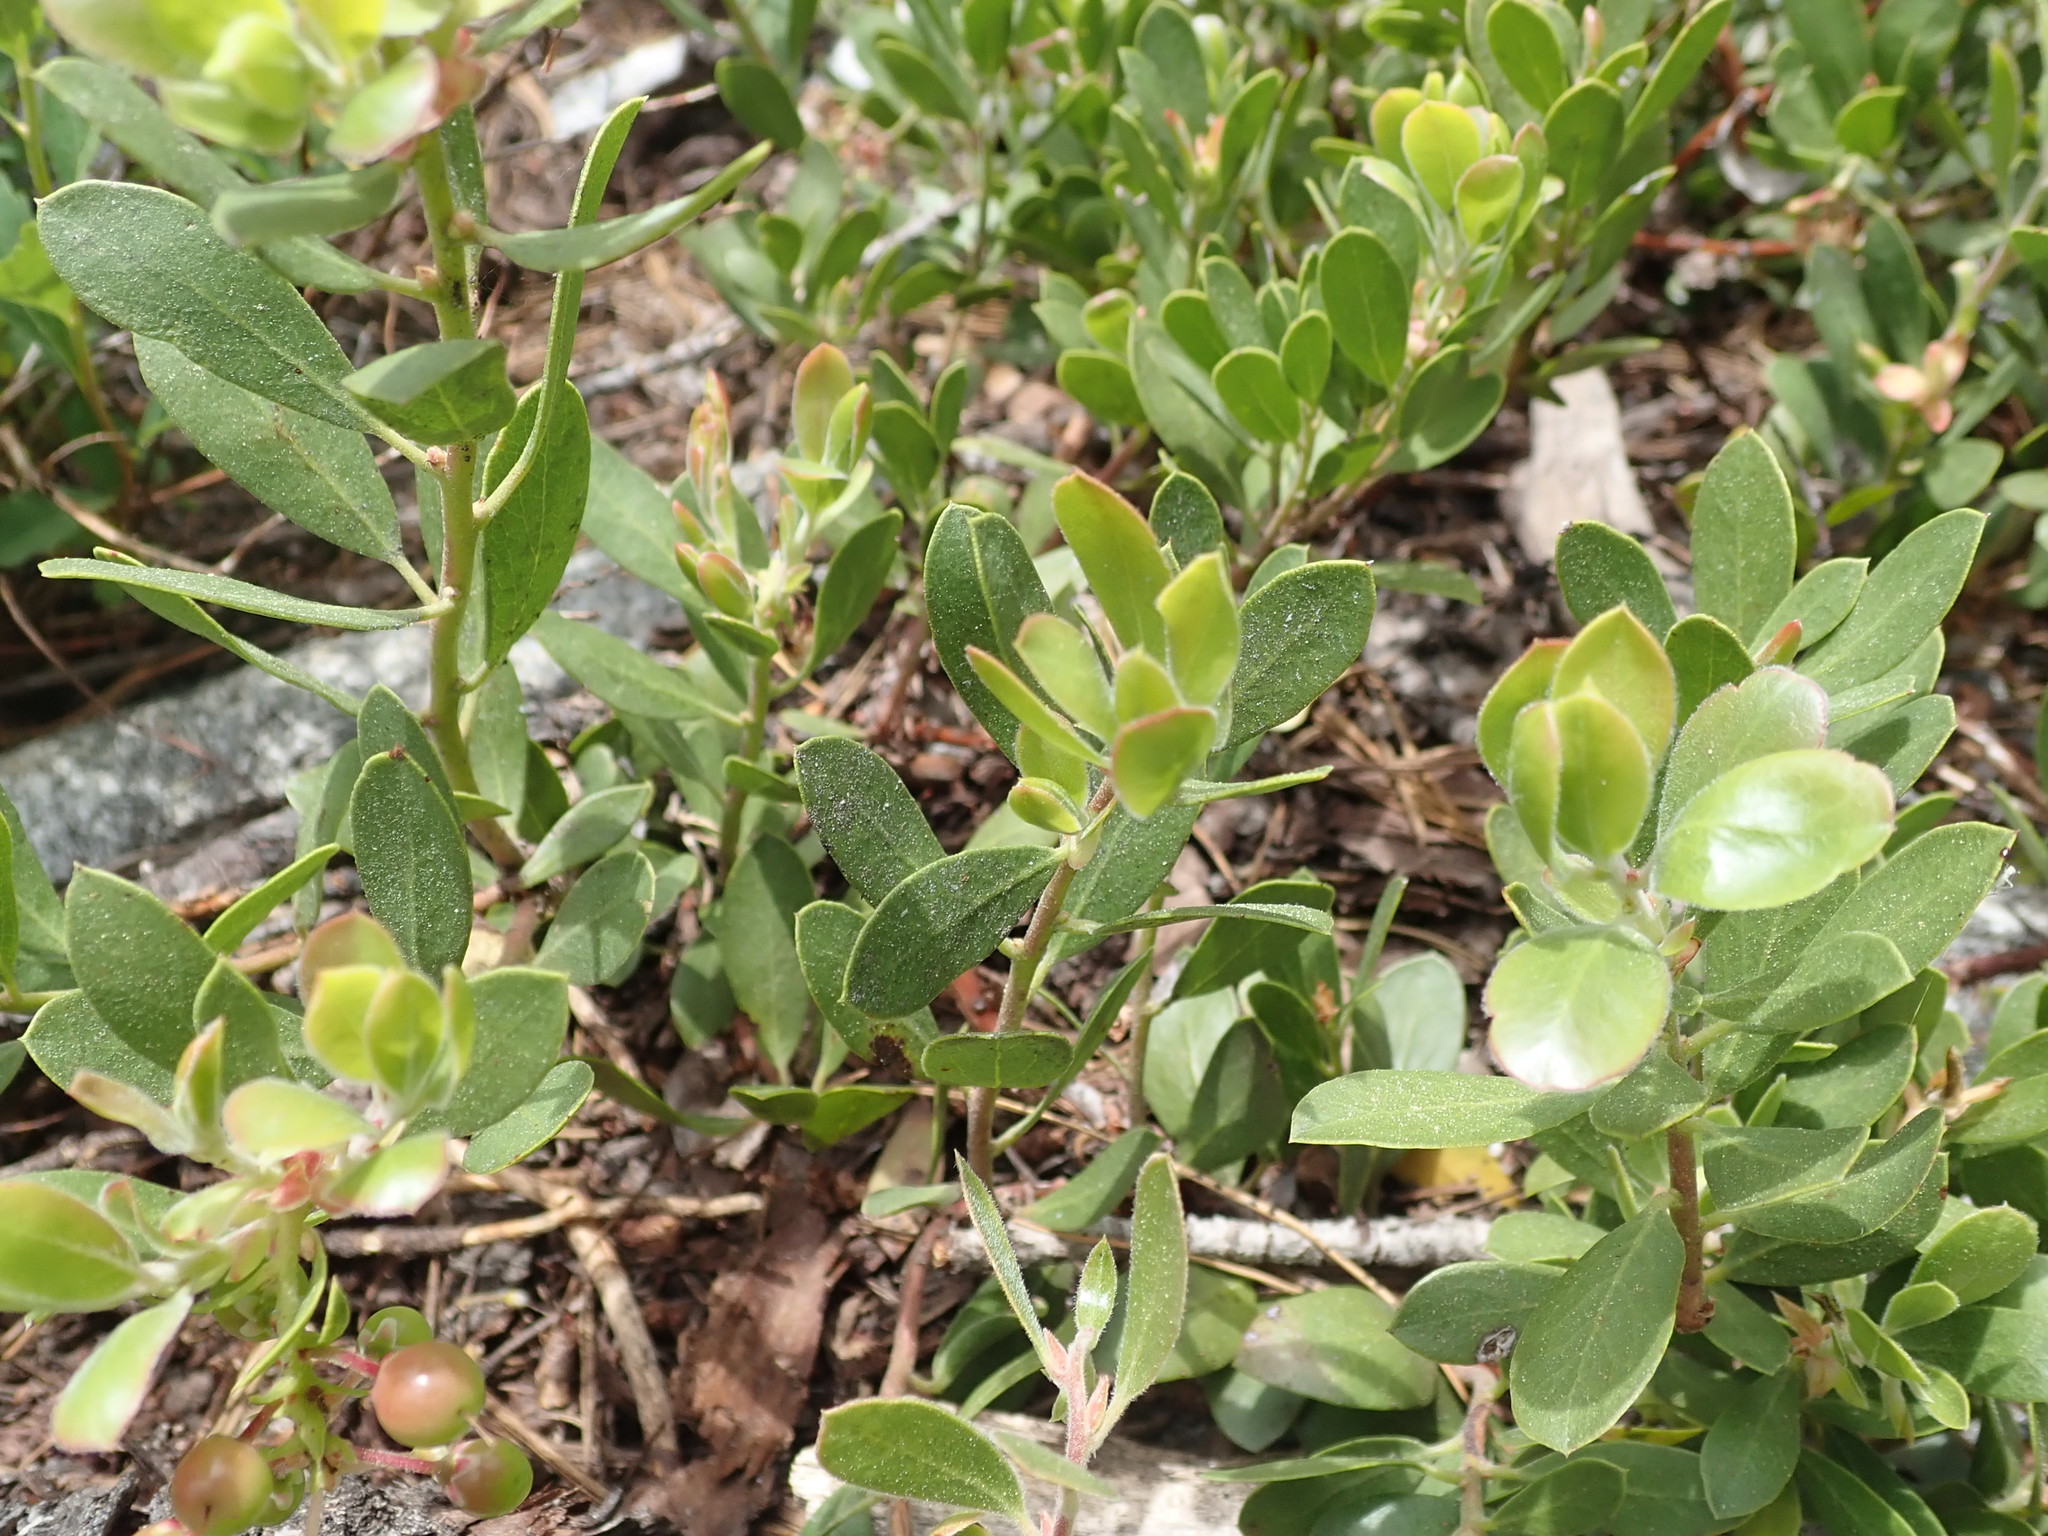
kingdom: Plantae
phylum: Tracheophyta
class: Magnoliopsida
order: Ericales
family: Ericaceae
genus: Arctostaphylos
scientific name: Arctostaphylos nevadensis
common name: Pinemat manzanita
